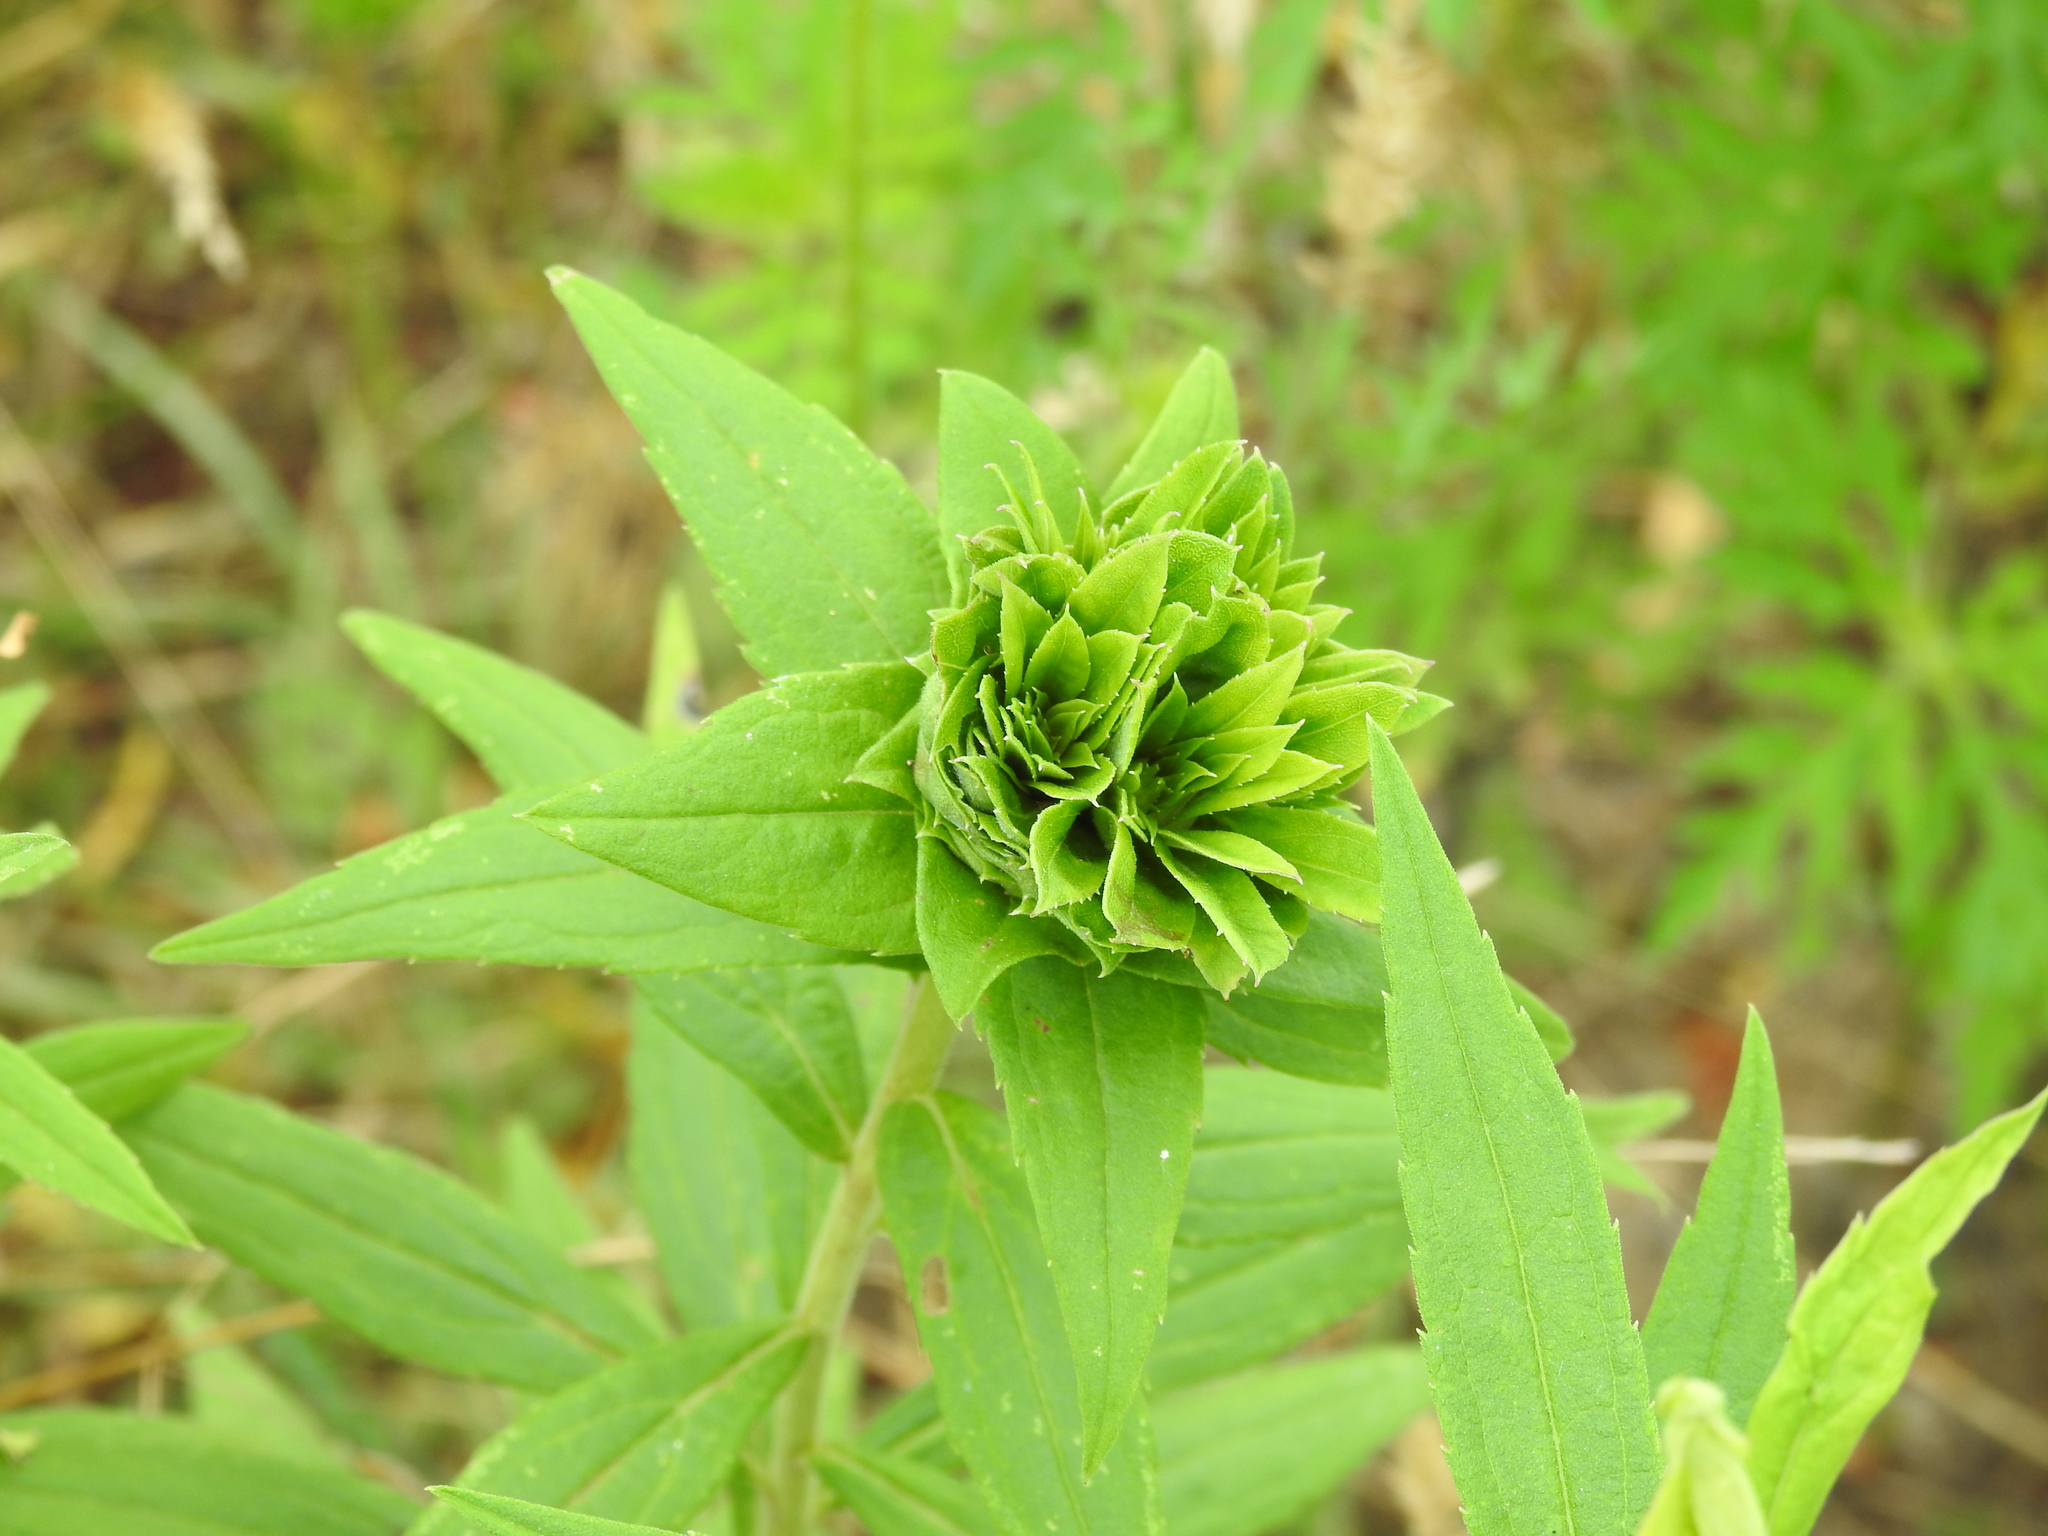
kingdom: Animalia
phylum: Arthropoda
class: Insecta
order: Diptera
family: Cecidomyiidae
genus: Rhopalomyia
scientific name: Rhopalomyia solidaginis
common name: Goldenrod bunch gall midge
